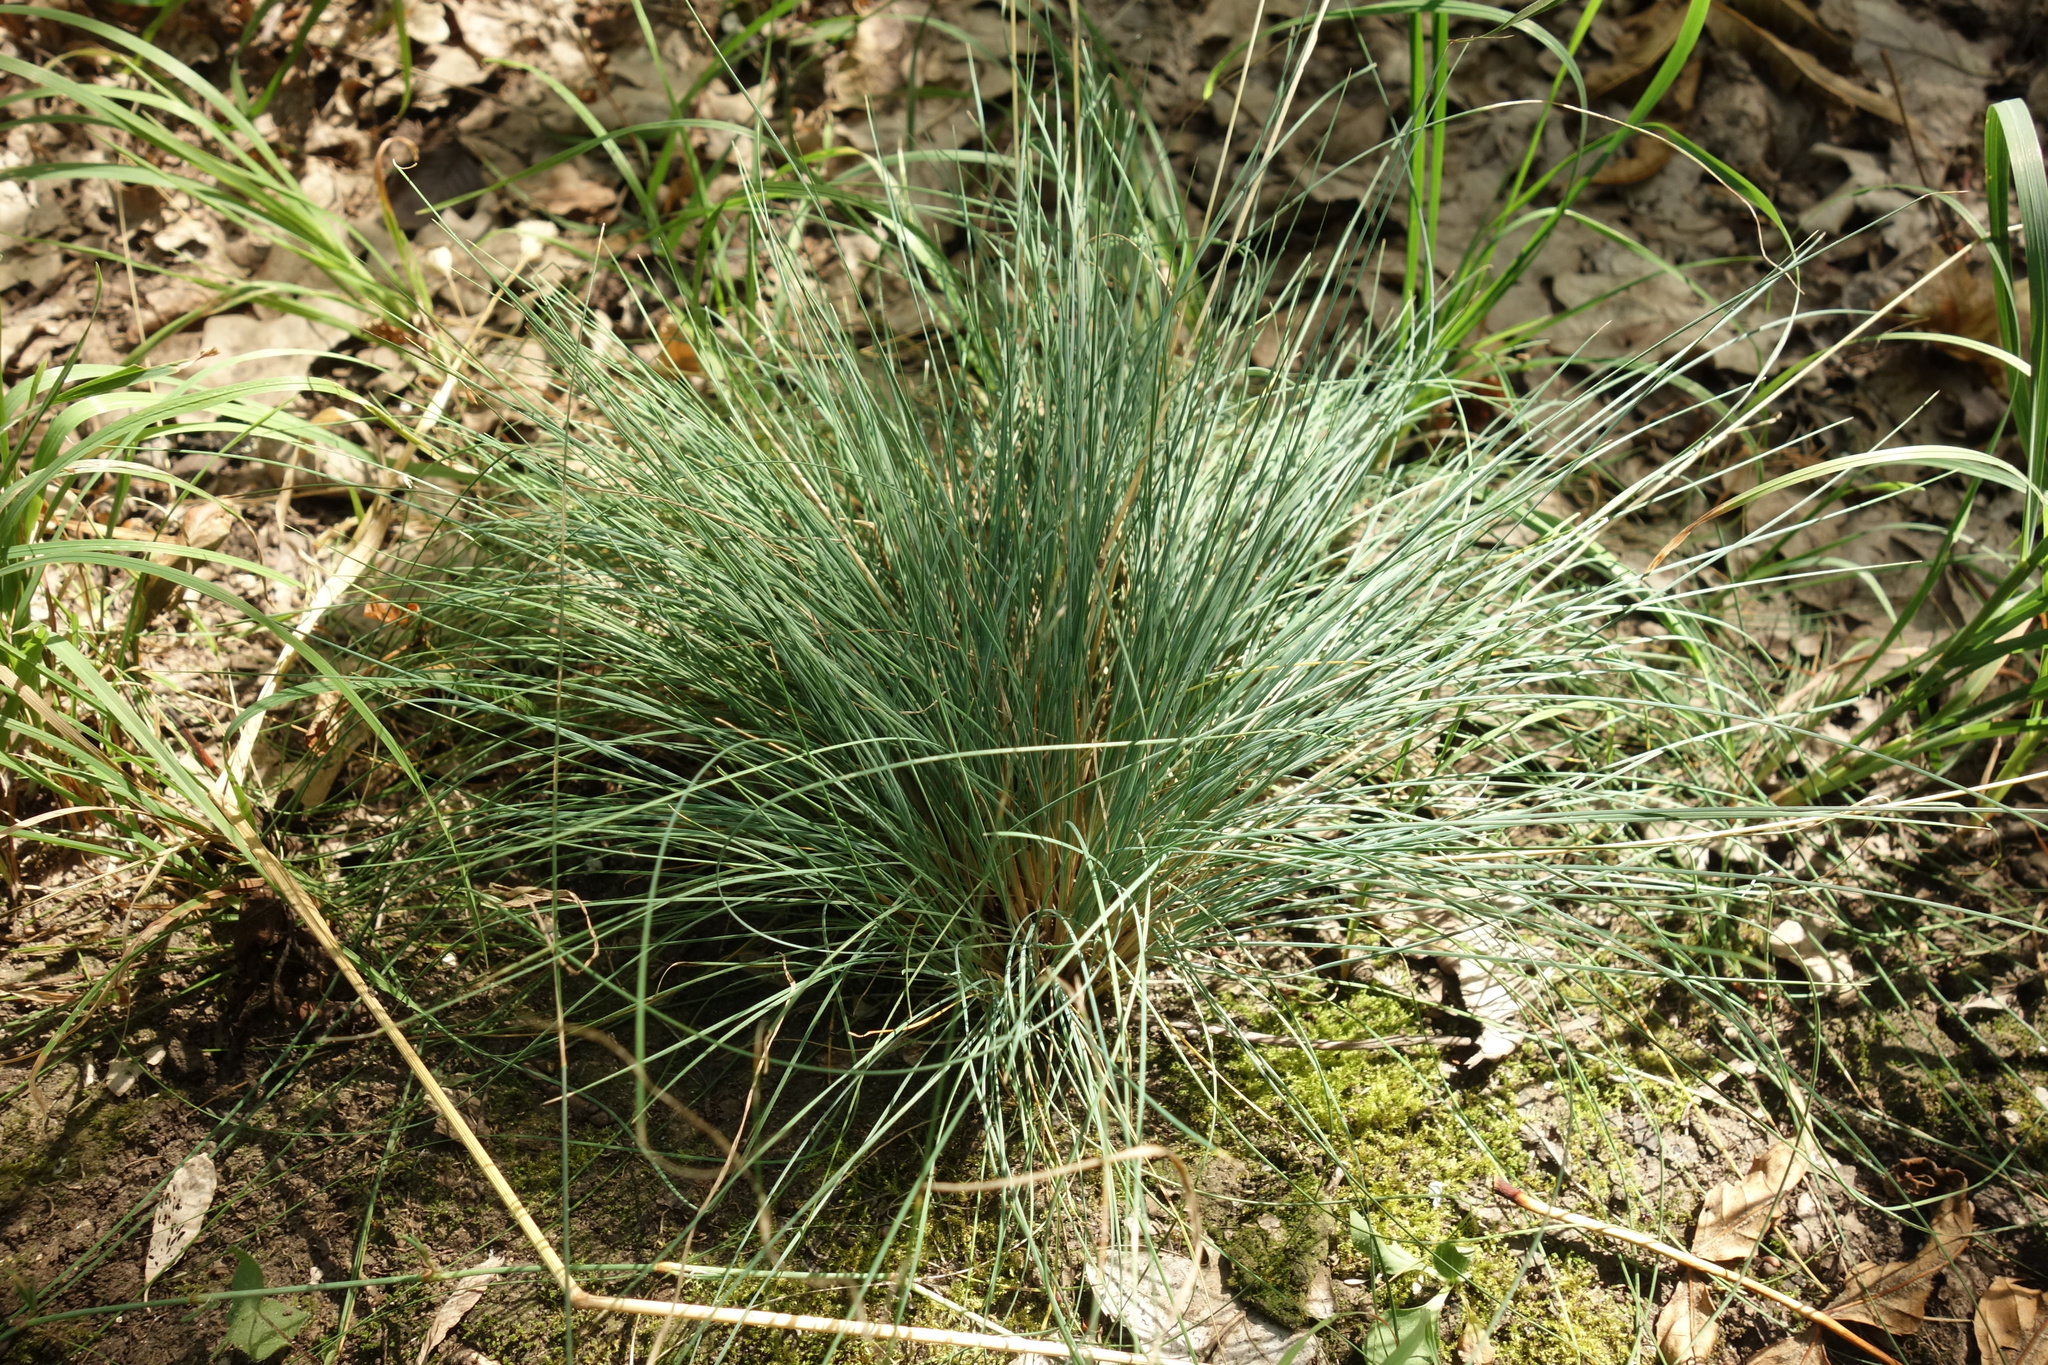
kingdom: Plantae
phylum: Tracheophyta
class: Liliopsida
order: Poales
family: Poaceae
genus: Festuca
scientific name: Festuca valesiaca
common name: Volga fescue
